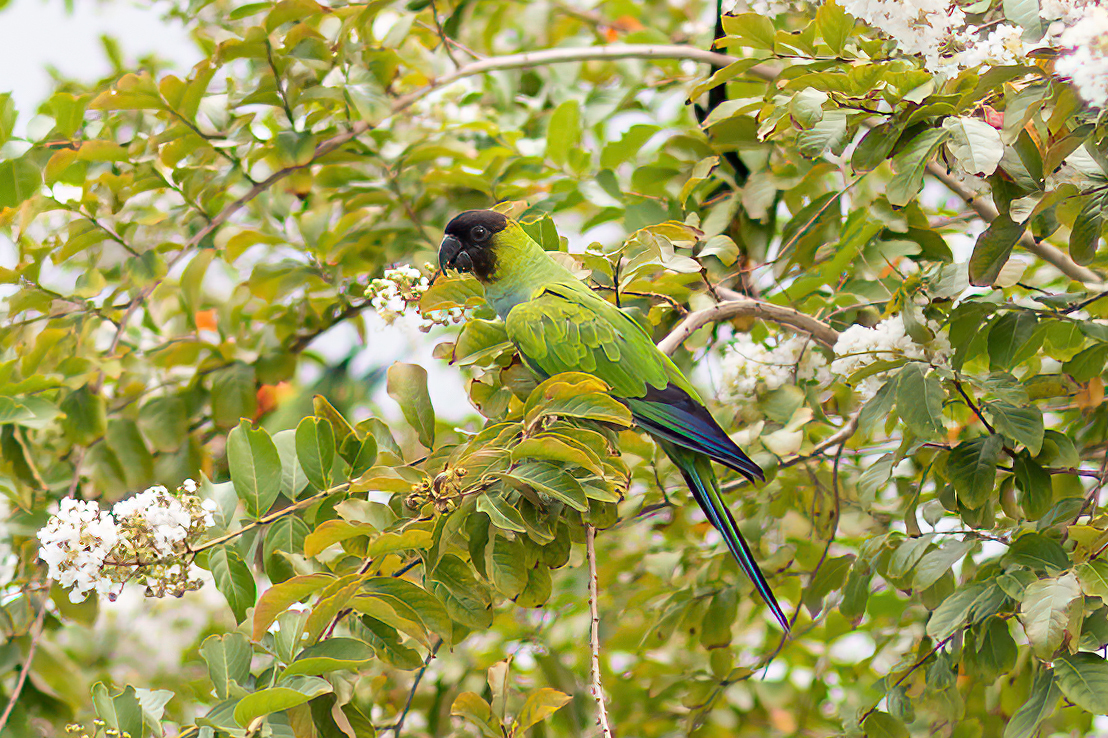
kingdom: Animalia
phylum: Chordata
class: Aves
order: Psittaciformes
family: Psittacidae
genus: Nandayus
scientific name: Nandayus nenday
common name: Nanday parakeet
